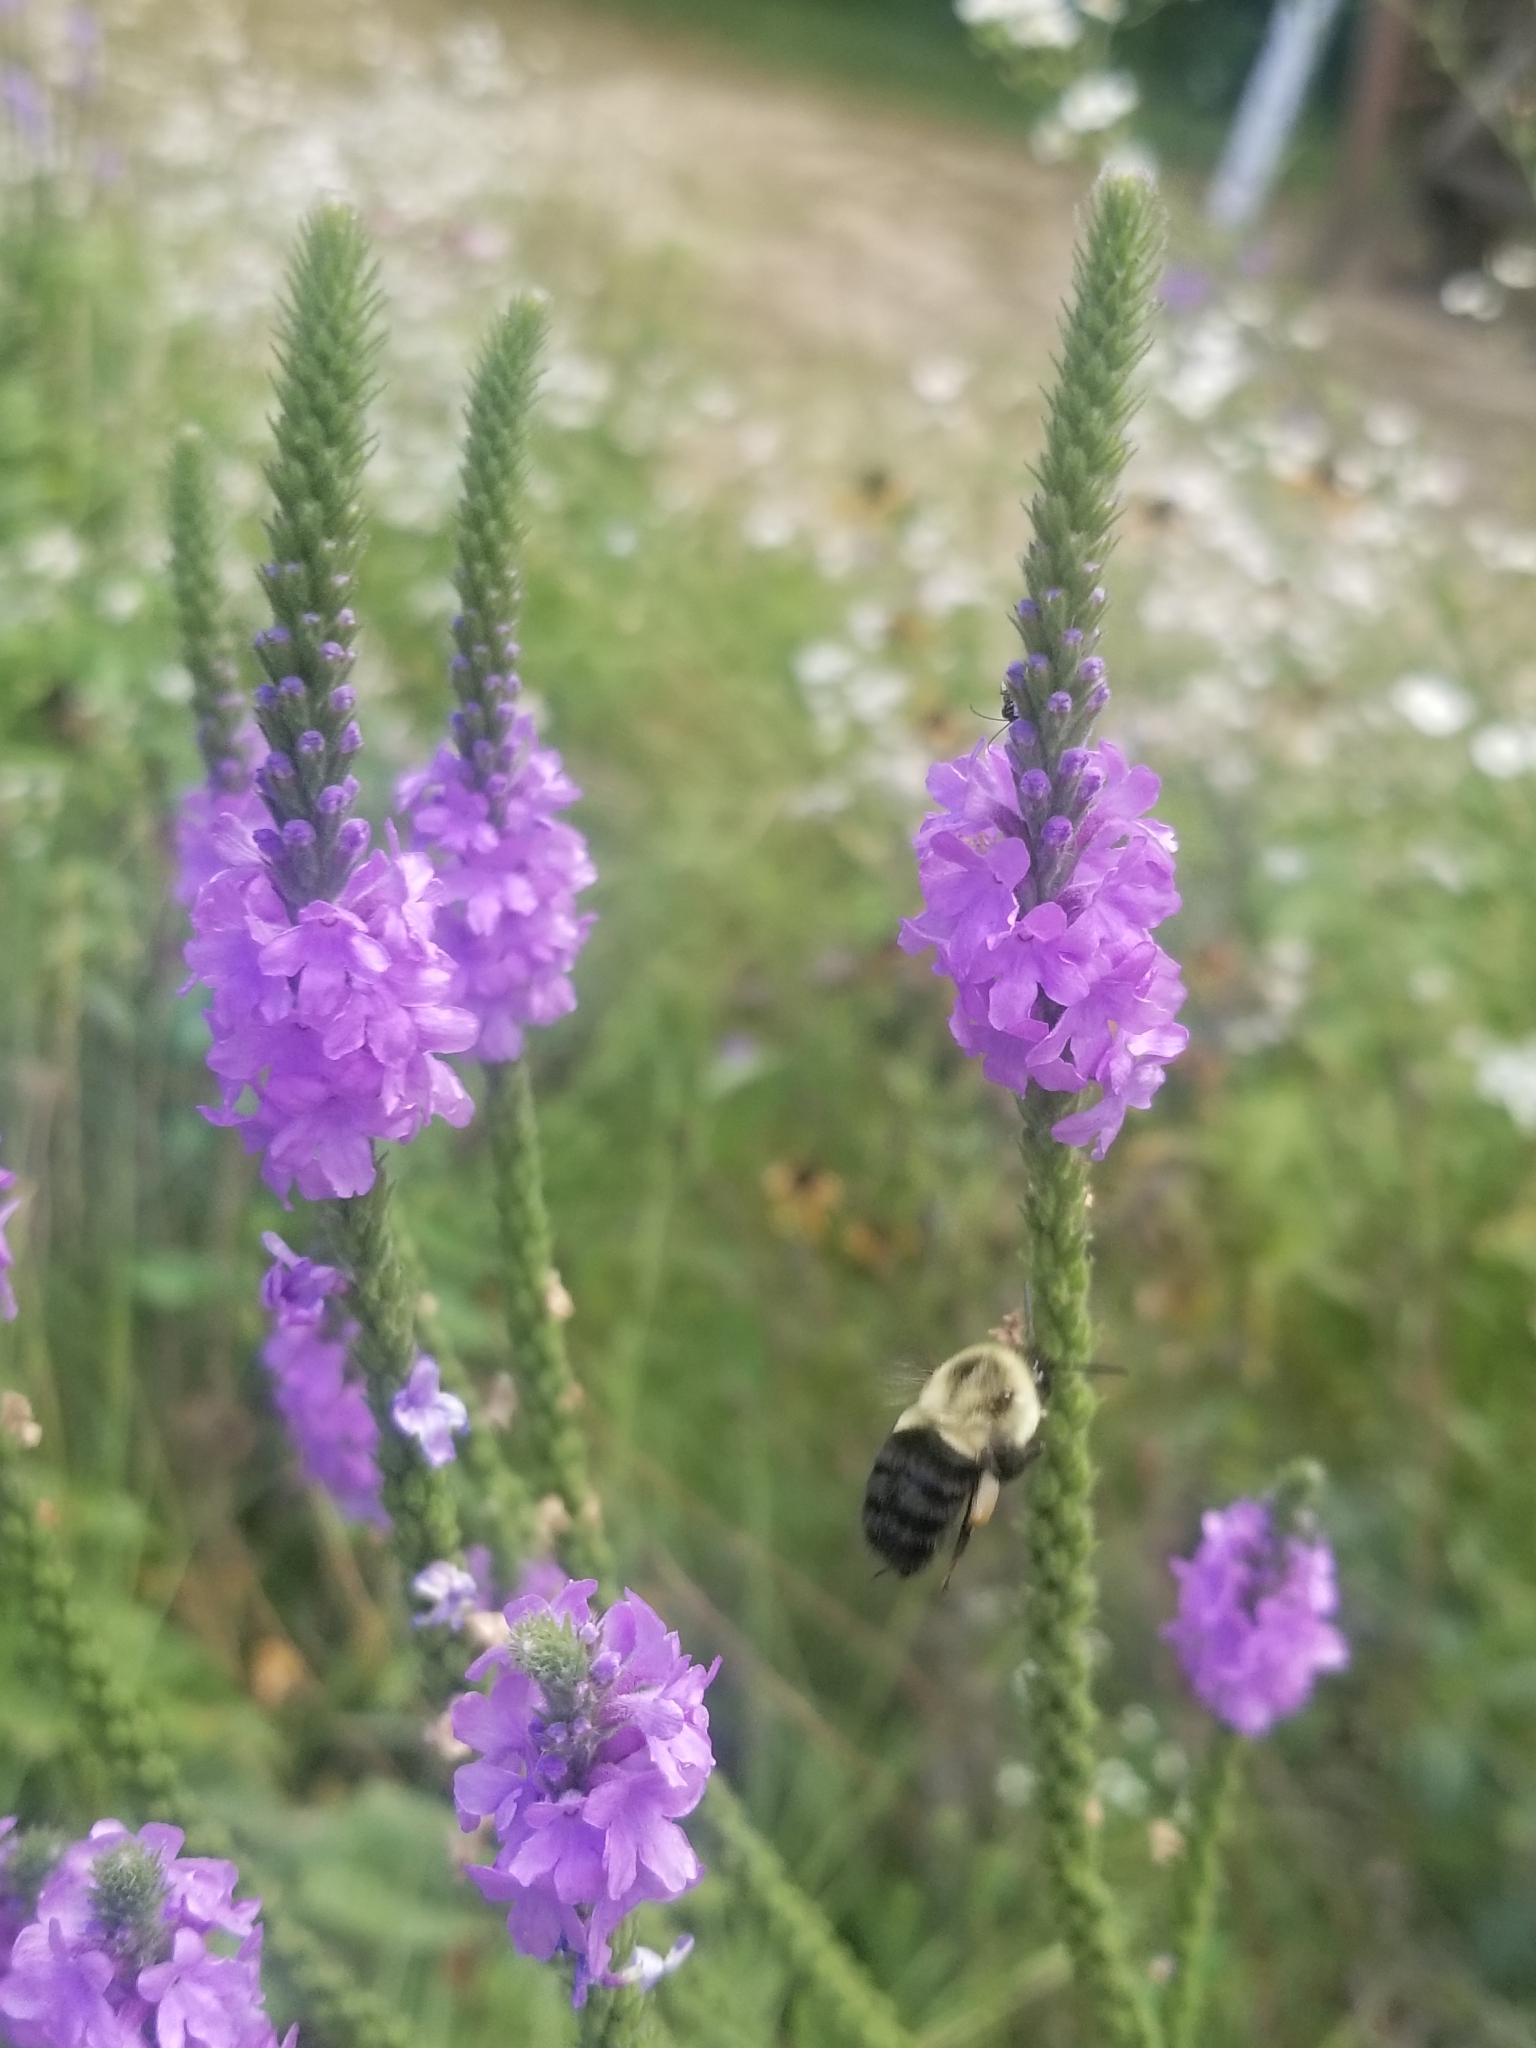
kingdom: Animalia
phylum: Arthropoda
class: Insecta
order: Hymenoptera
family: Apidae
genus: Bombus
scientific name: Bombus impatiens
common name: Common eastern bumble bee
